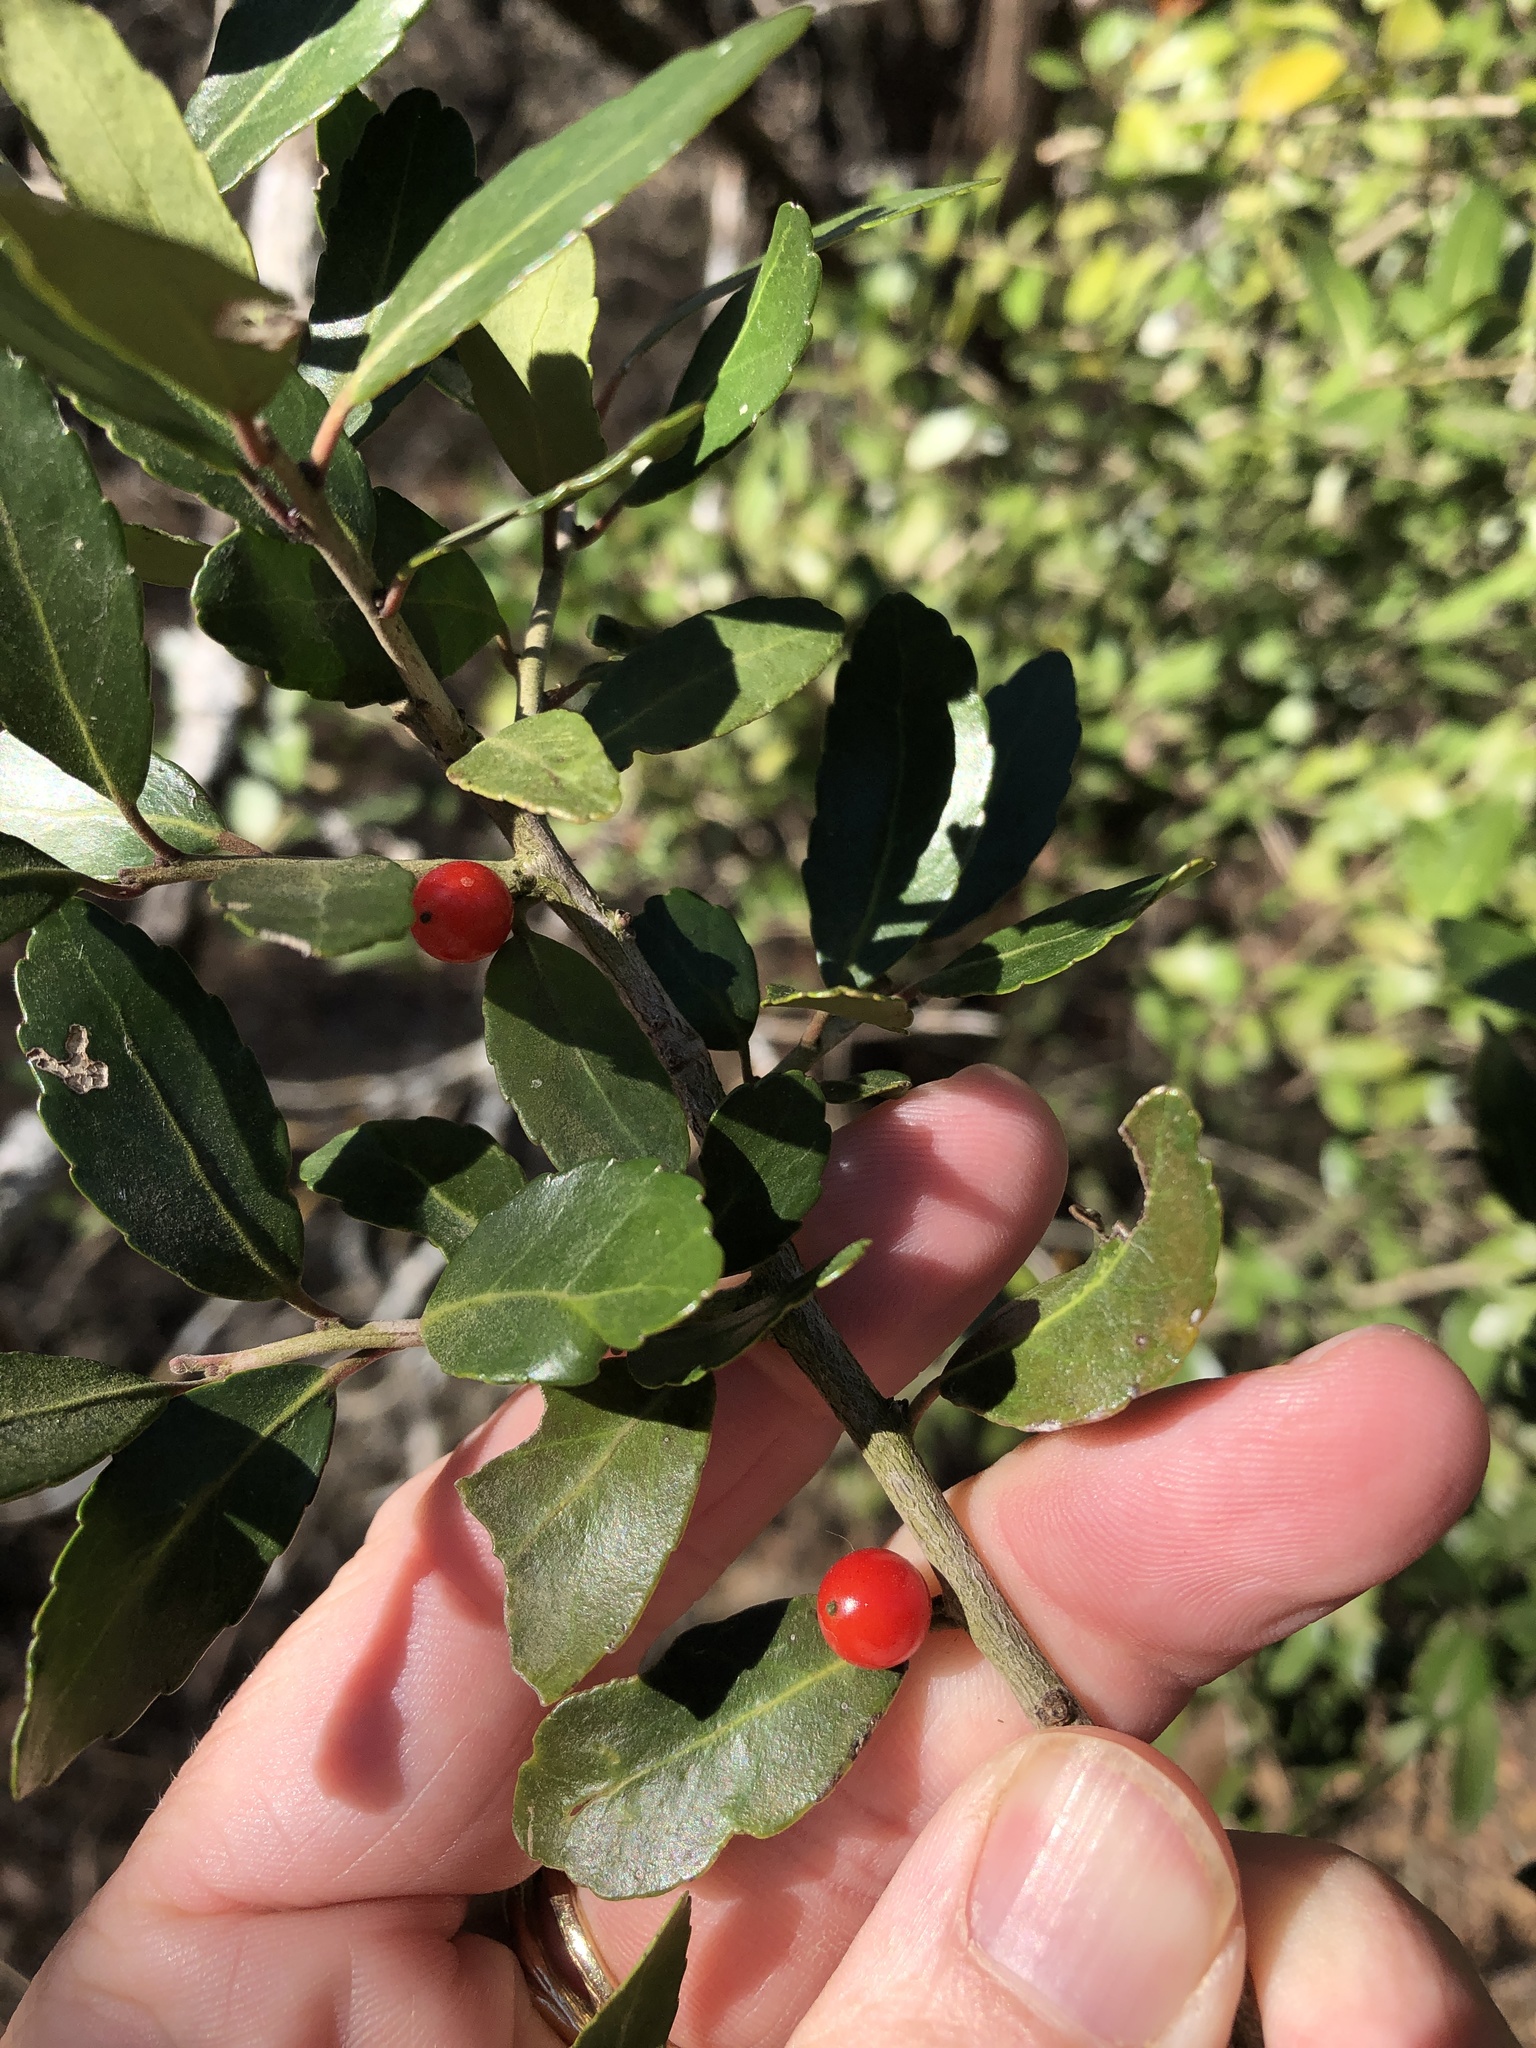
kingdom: Plantae
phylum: Tracheophyta
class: Magnoliopsida
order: Aquifoliales
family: Aquifoliaceae
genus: Ilex
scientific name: Ilex vomitoria
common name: Yaupon holly
